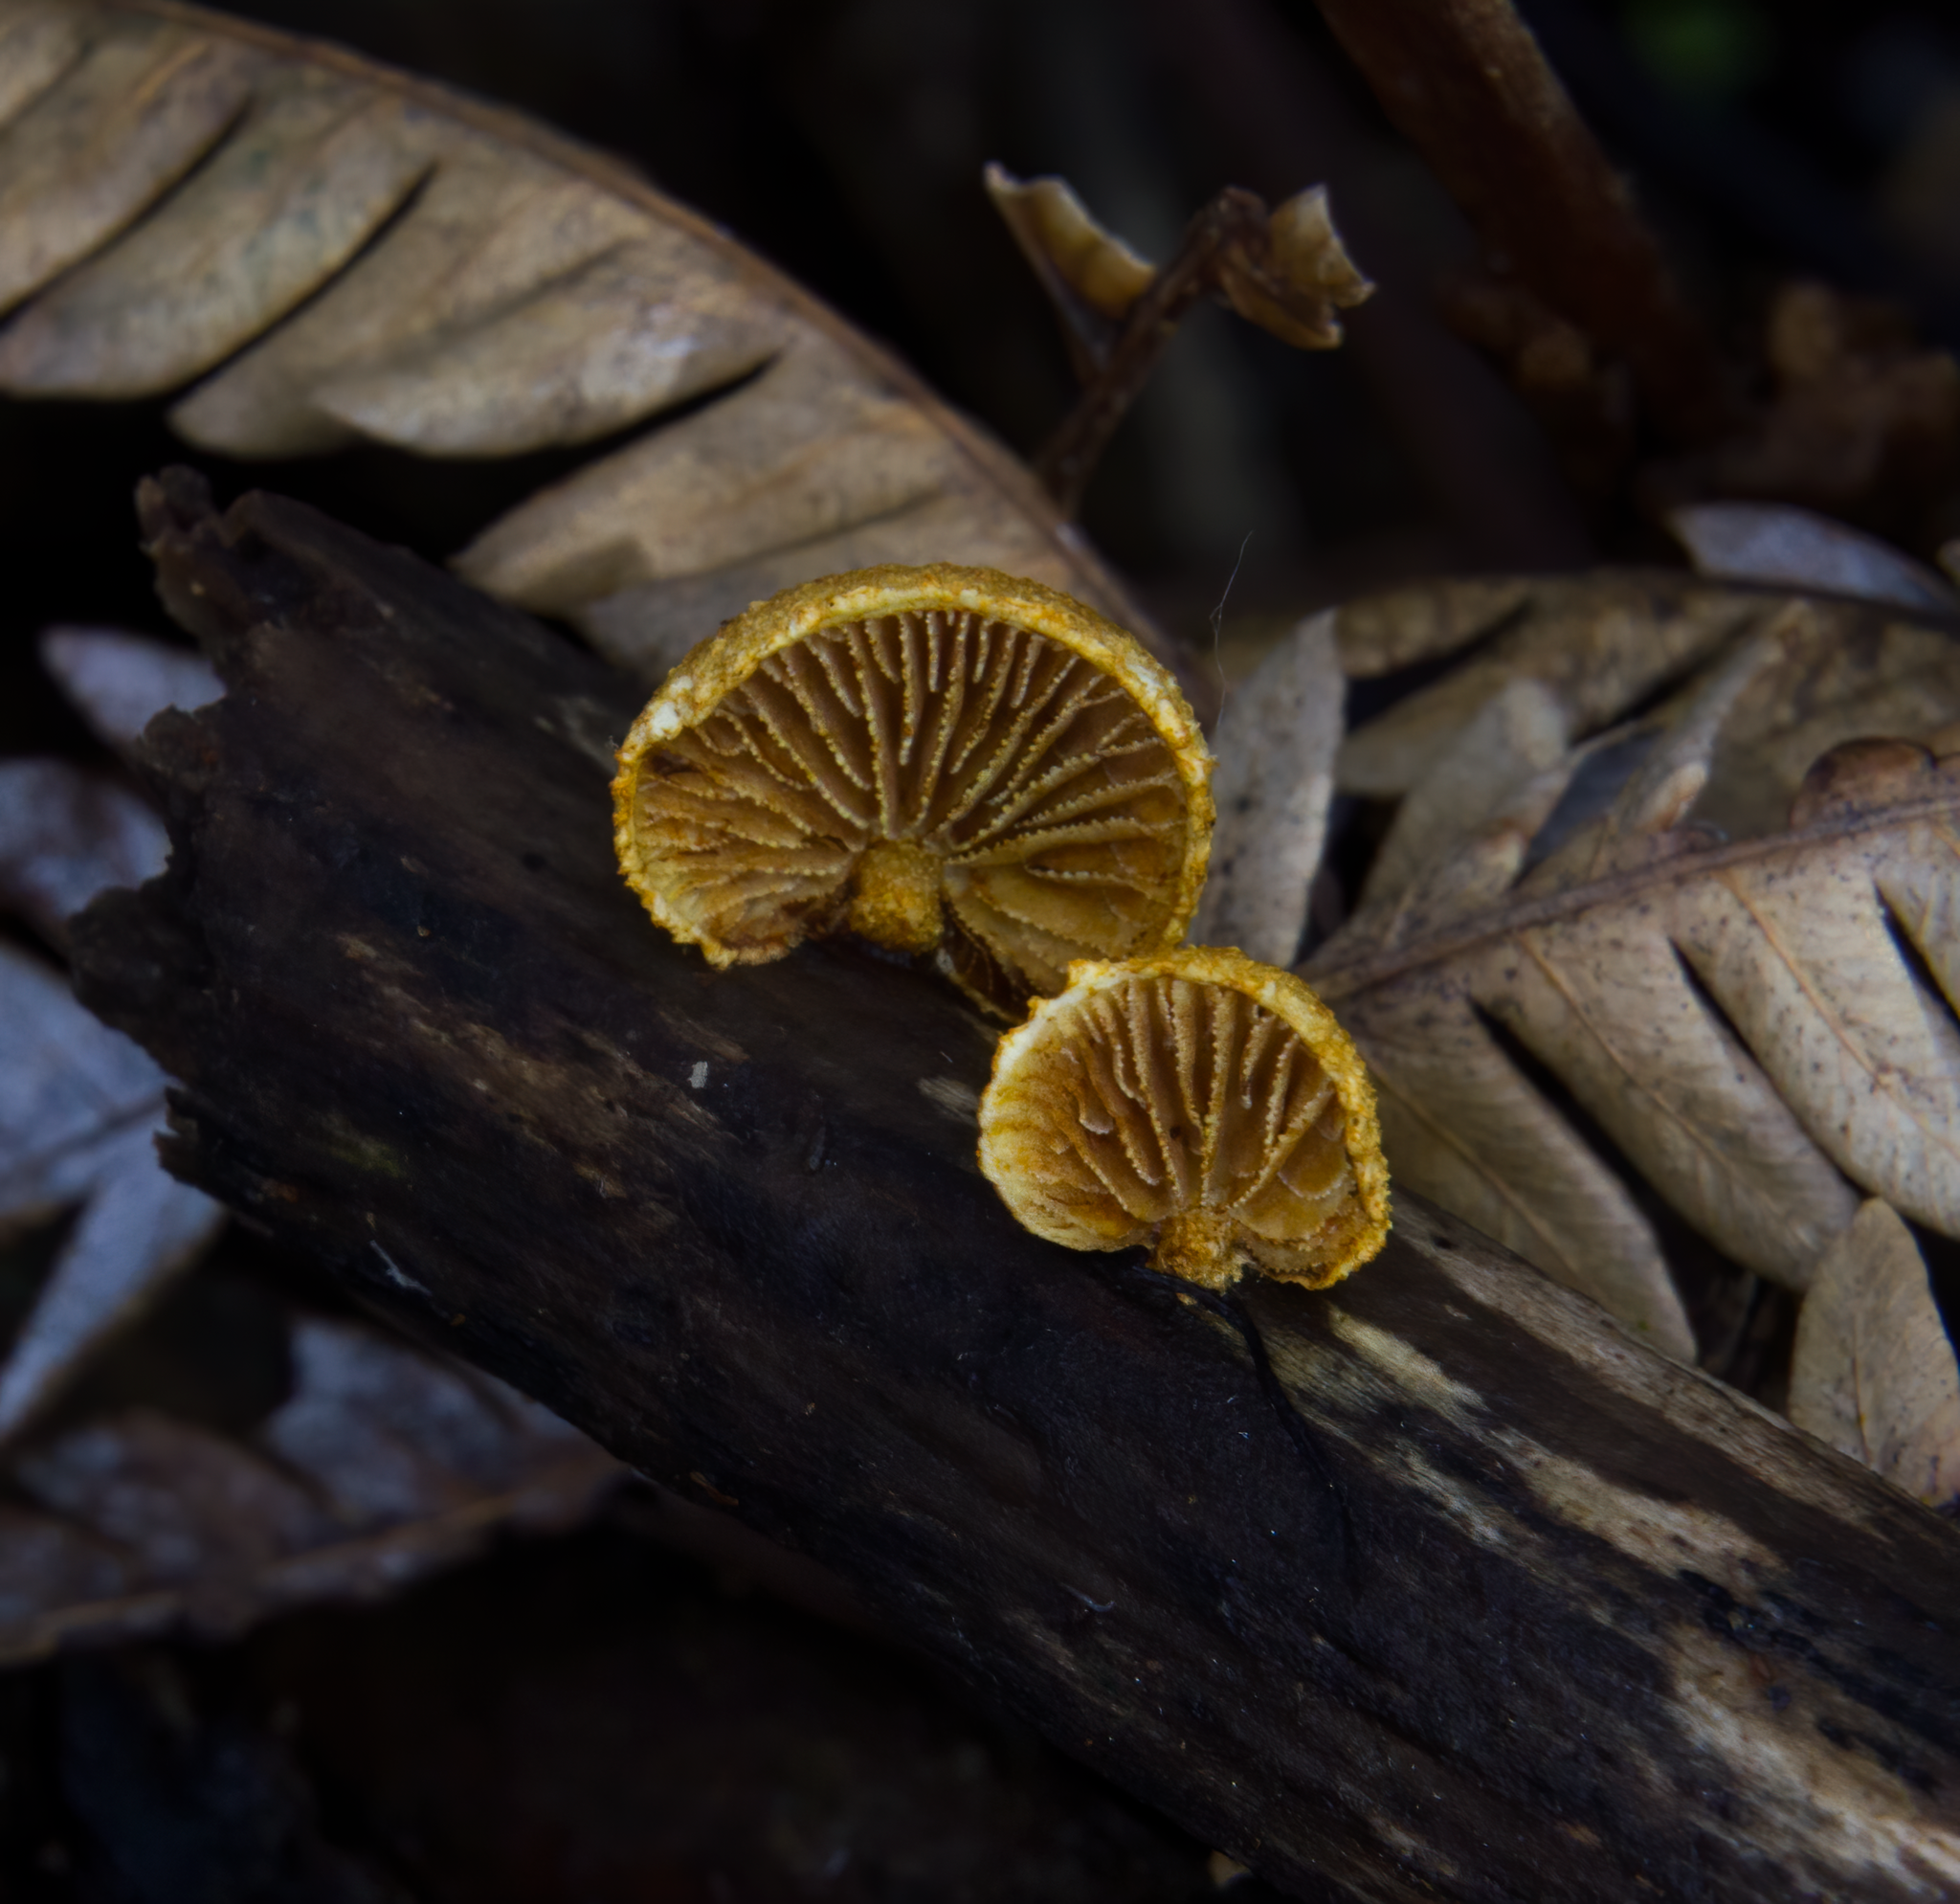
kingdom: Fungi
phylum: Basidiomycota
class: Agaricomycetes
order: Agaricales
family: Crepidotaceae
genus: Pleuroflammula
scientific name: Pleuroflammula praestans
